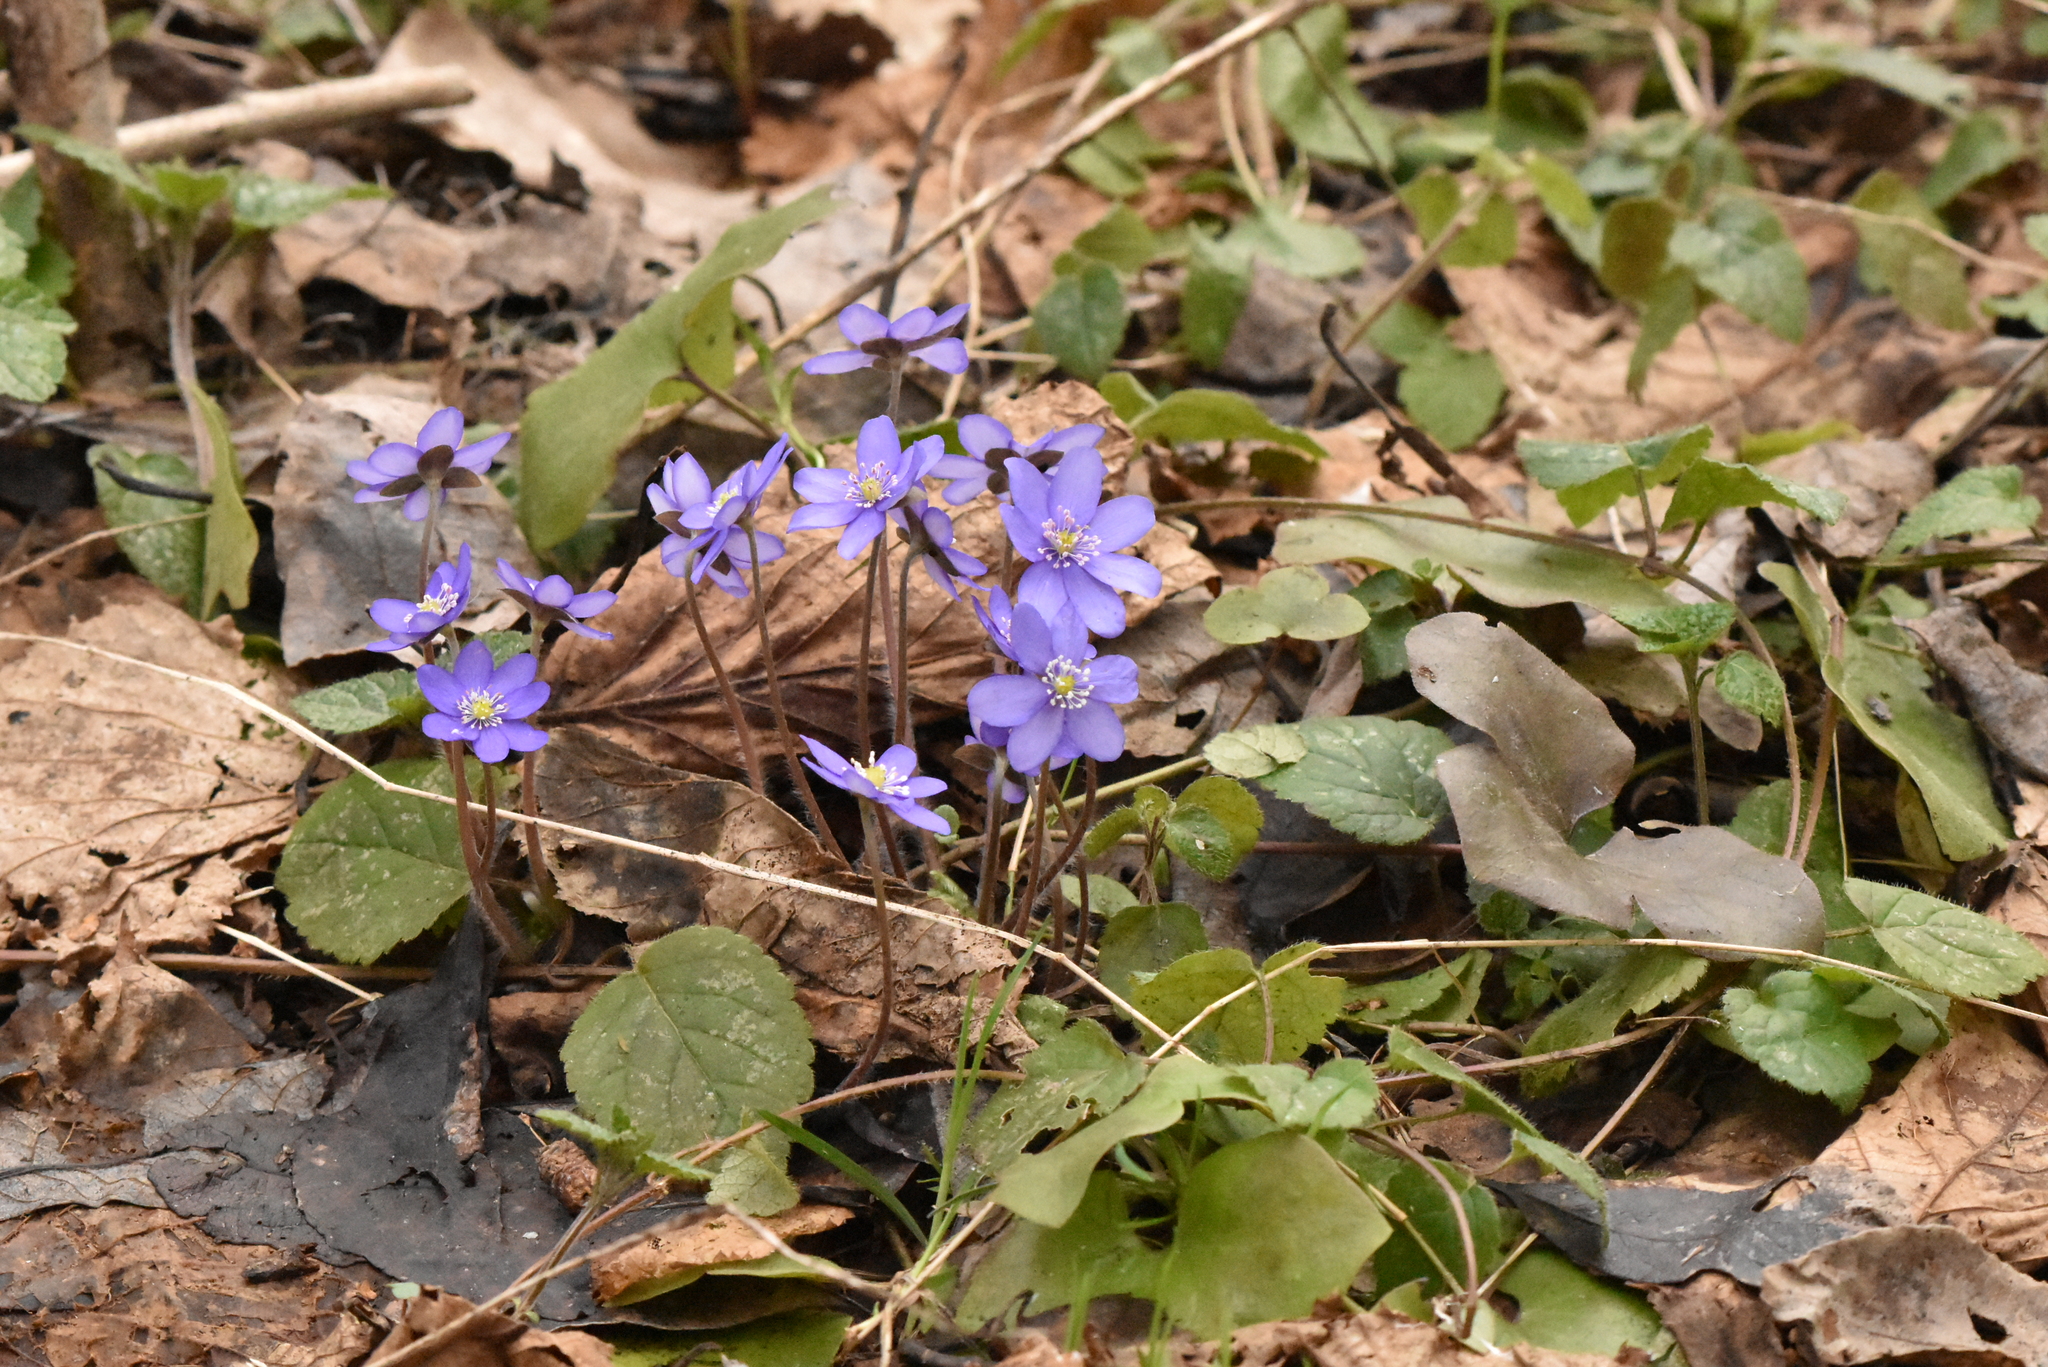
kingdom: Plantae
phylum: Tracheophyta
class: Magnoliopsida
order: Ranunculales
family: Ranunculaceae
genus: Hepatica
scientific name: Hepatica nobilis
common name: Liverleaf
